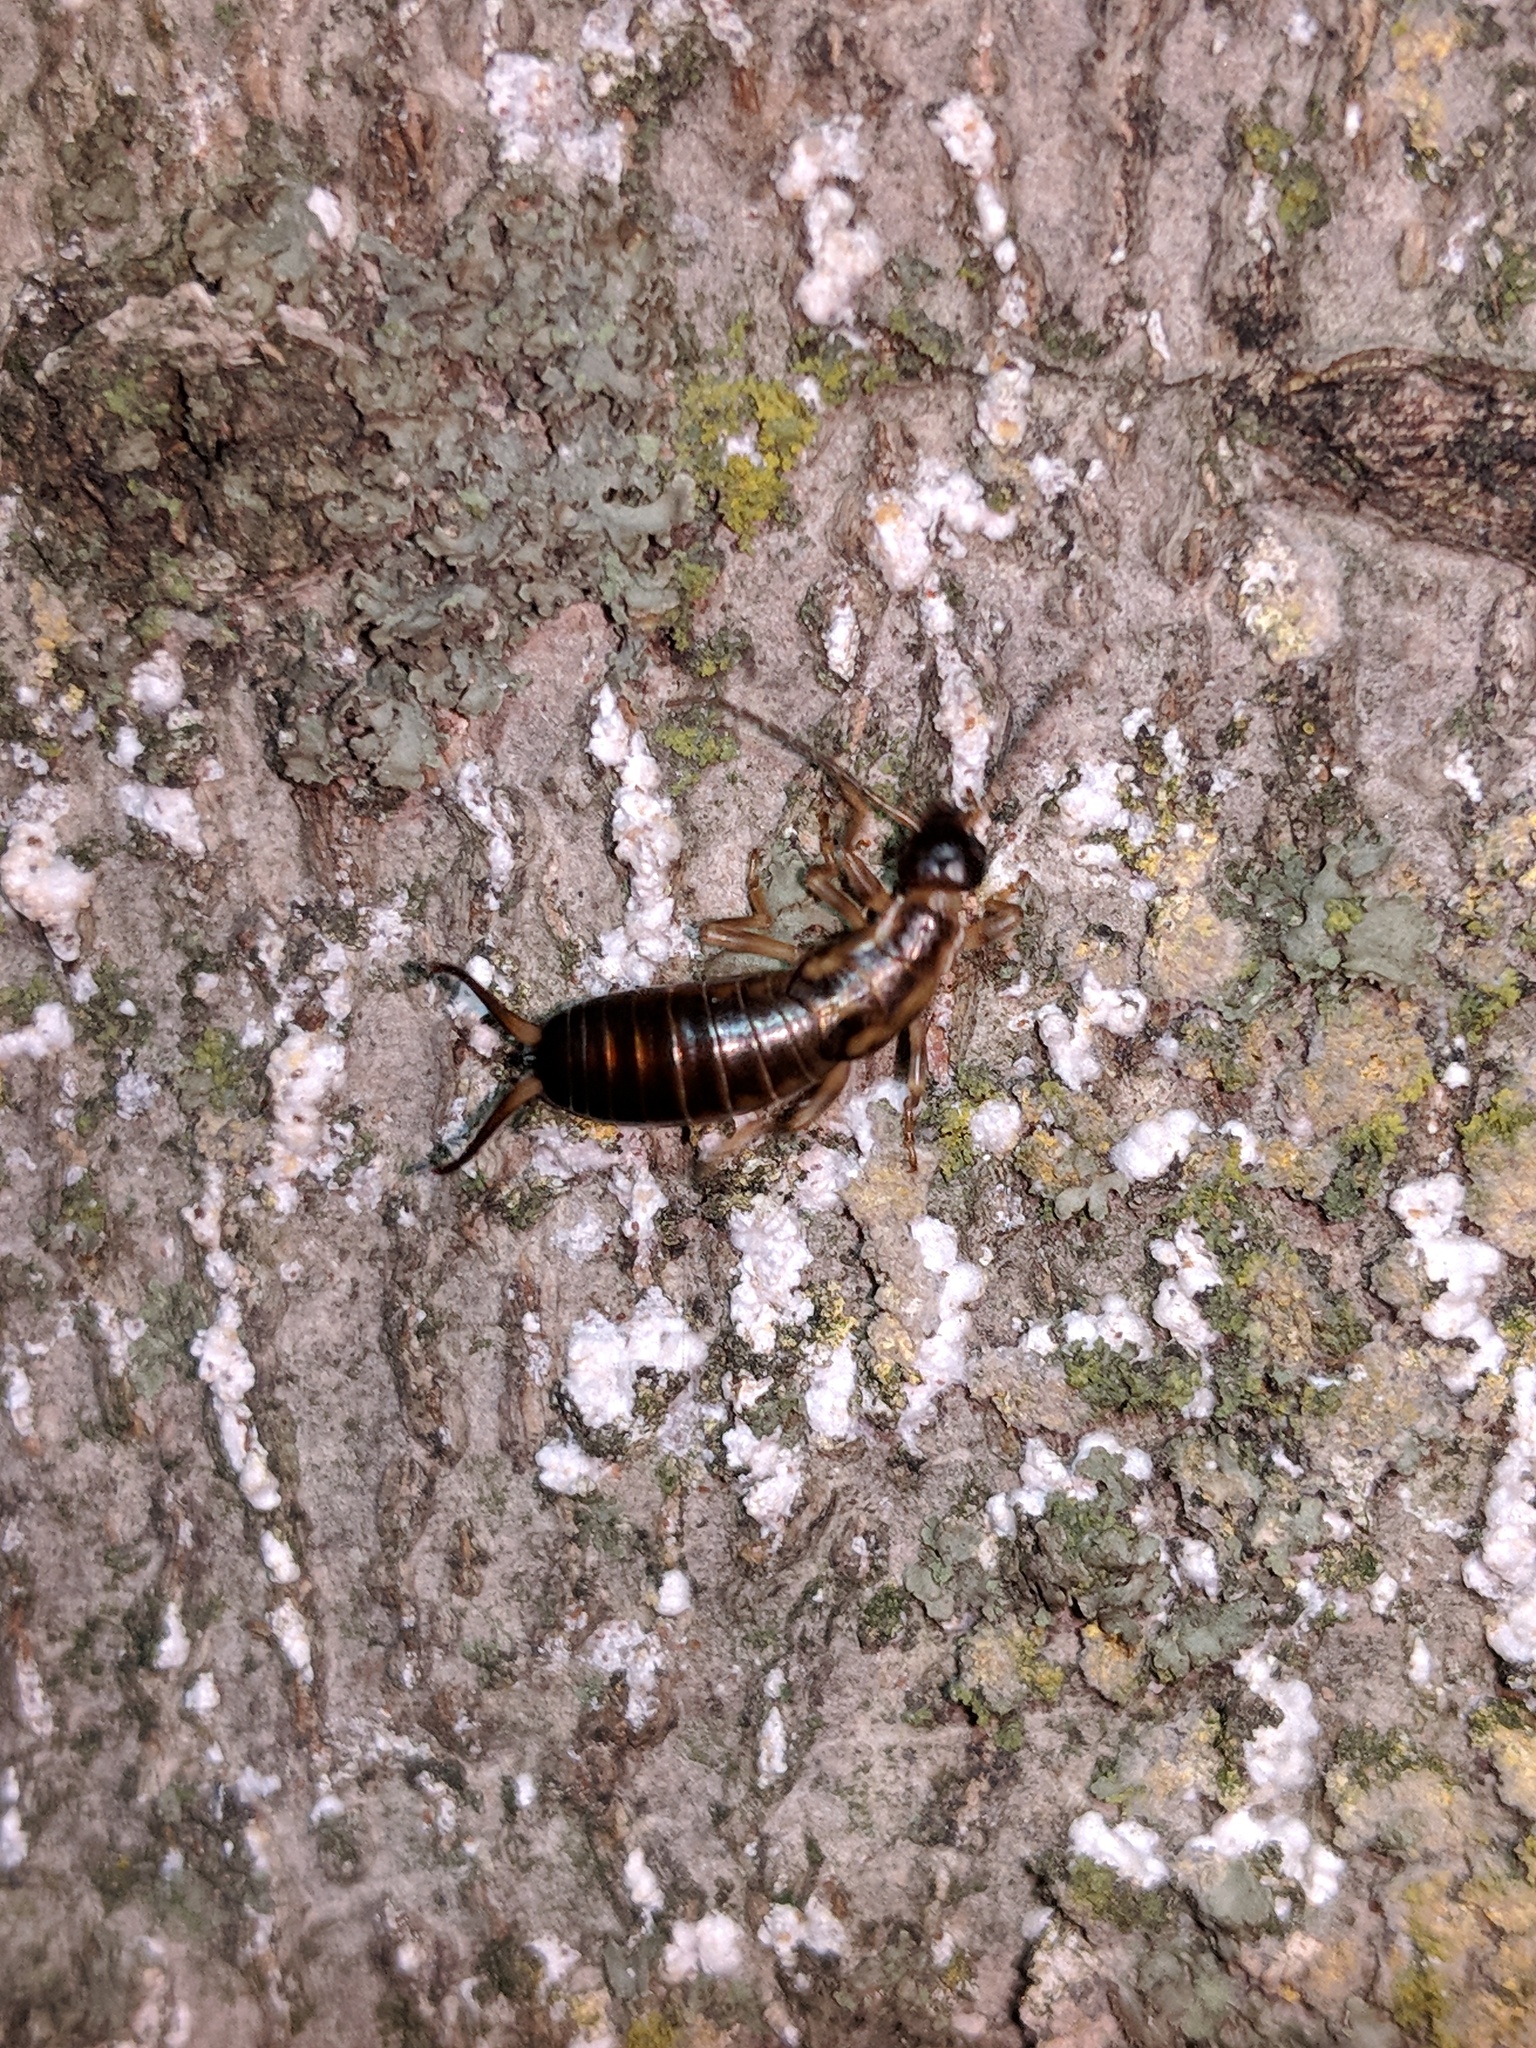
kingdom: Animalia
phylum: Arthropoda
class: Insecta
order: Dermaptera
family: Forficulidae
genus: Forficula
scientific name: Forficula
